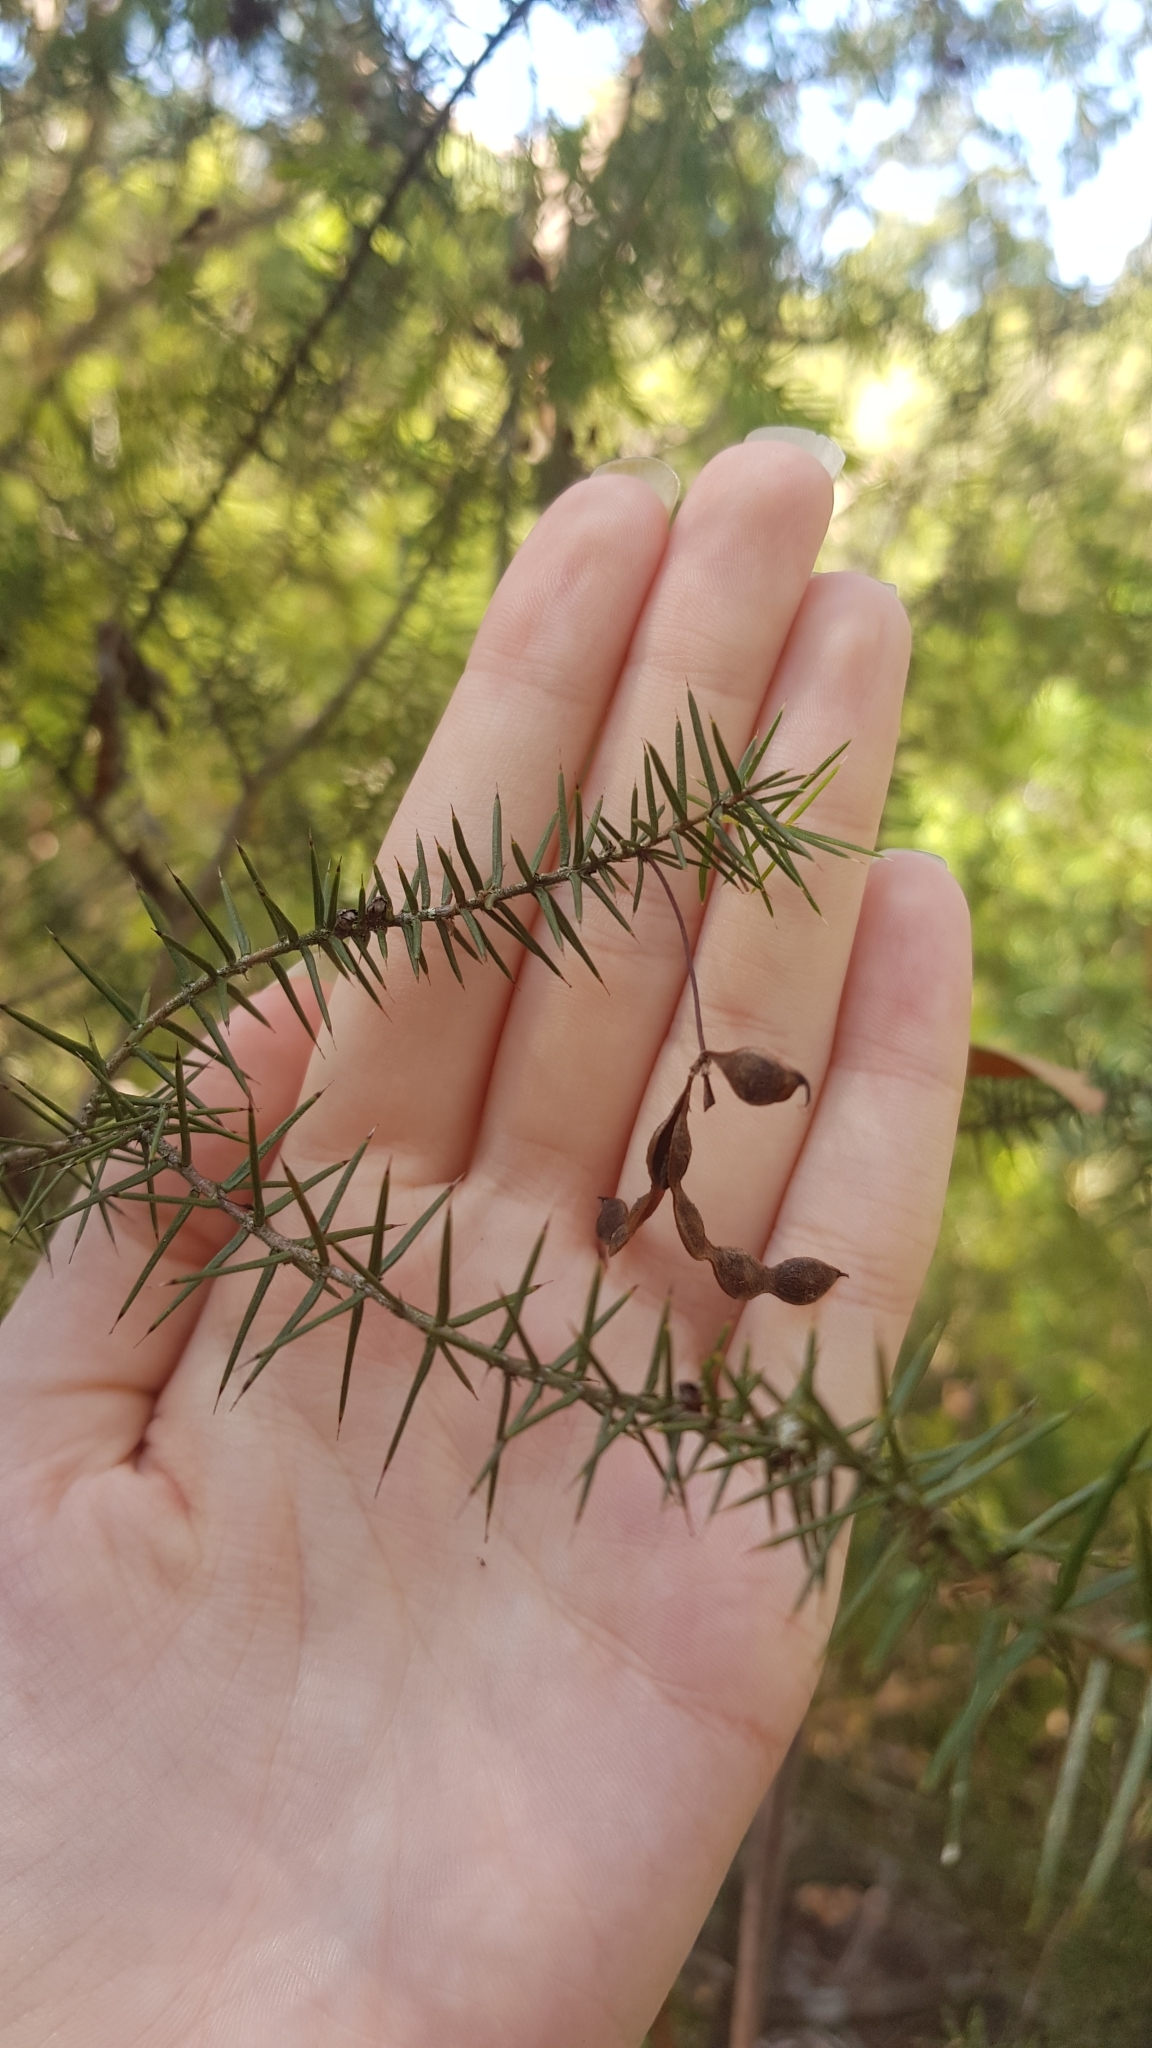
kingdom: Plantae
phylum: Tracheophyta
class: Magnoliopsida
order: Fabales
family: Fabaceae
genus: Acacia
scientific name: Acacia ulicifolia
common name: Juniper wattle
